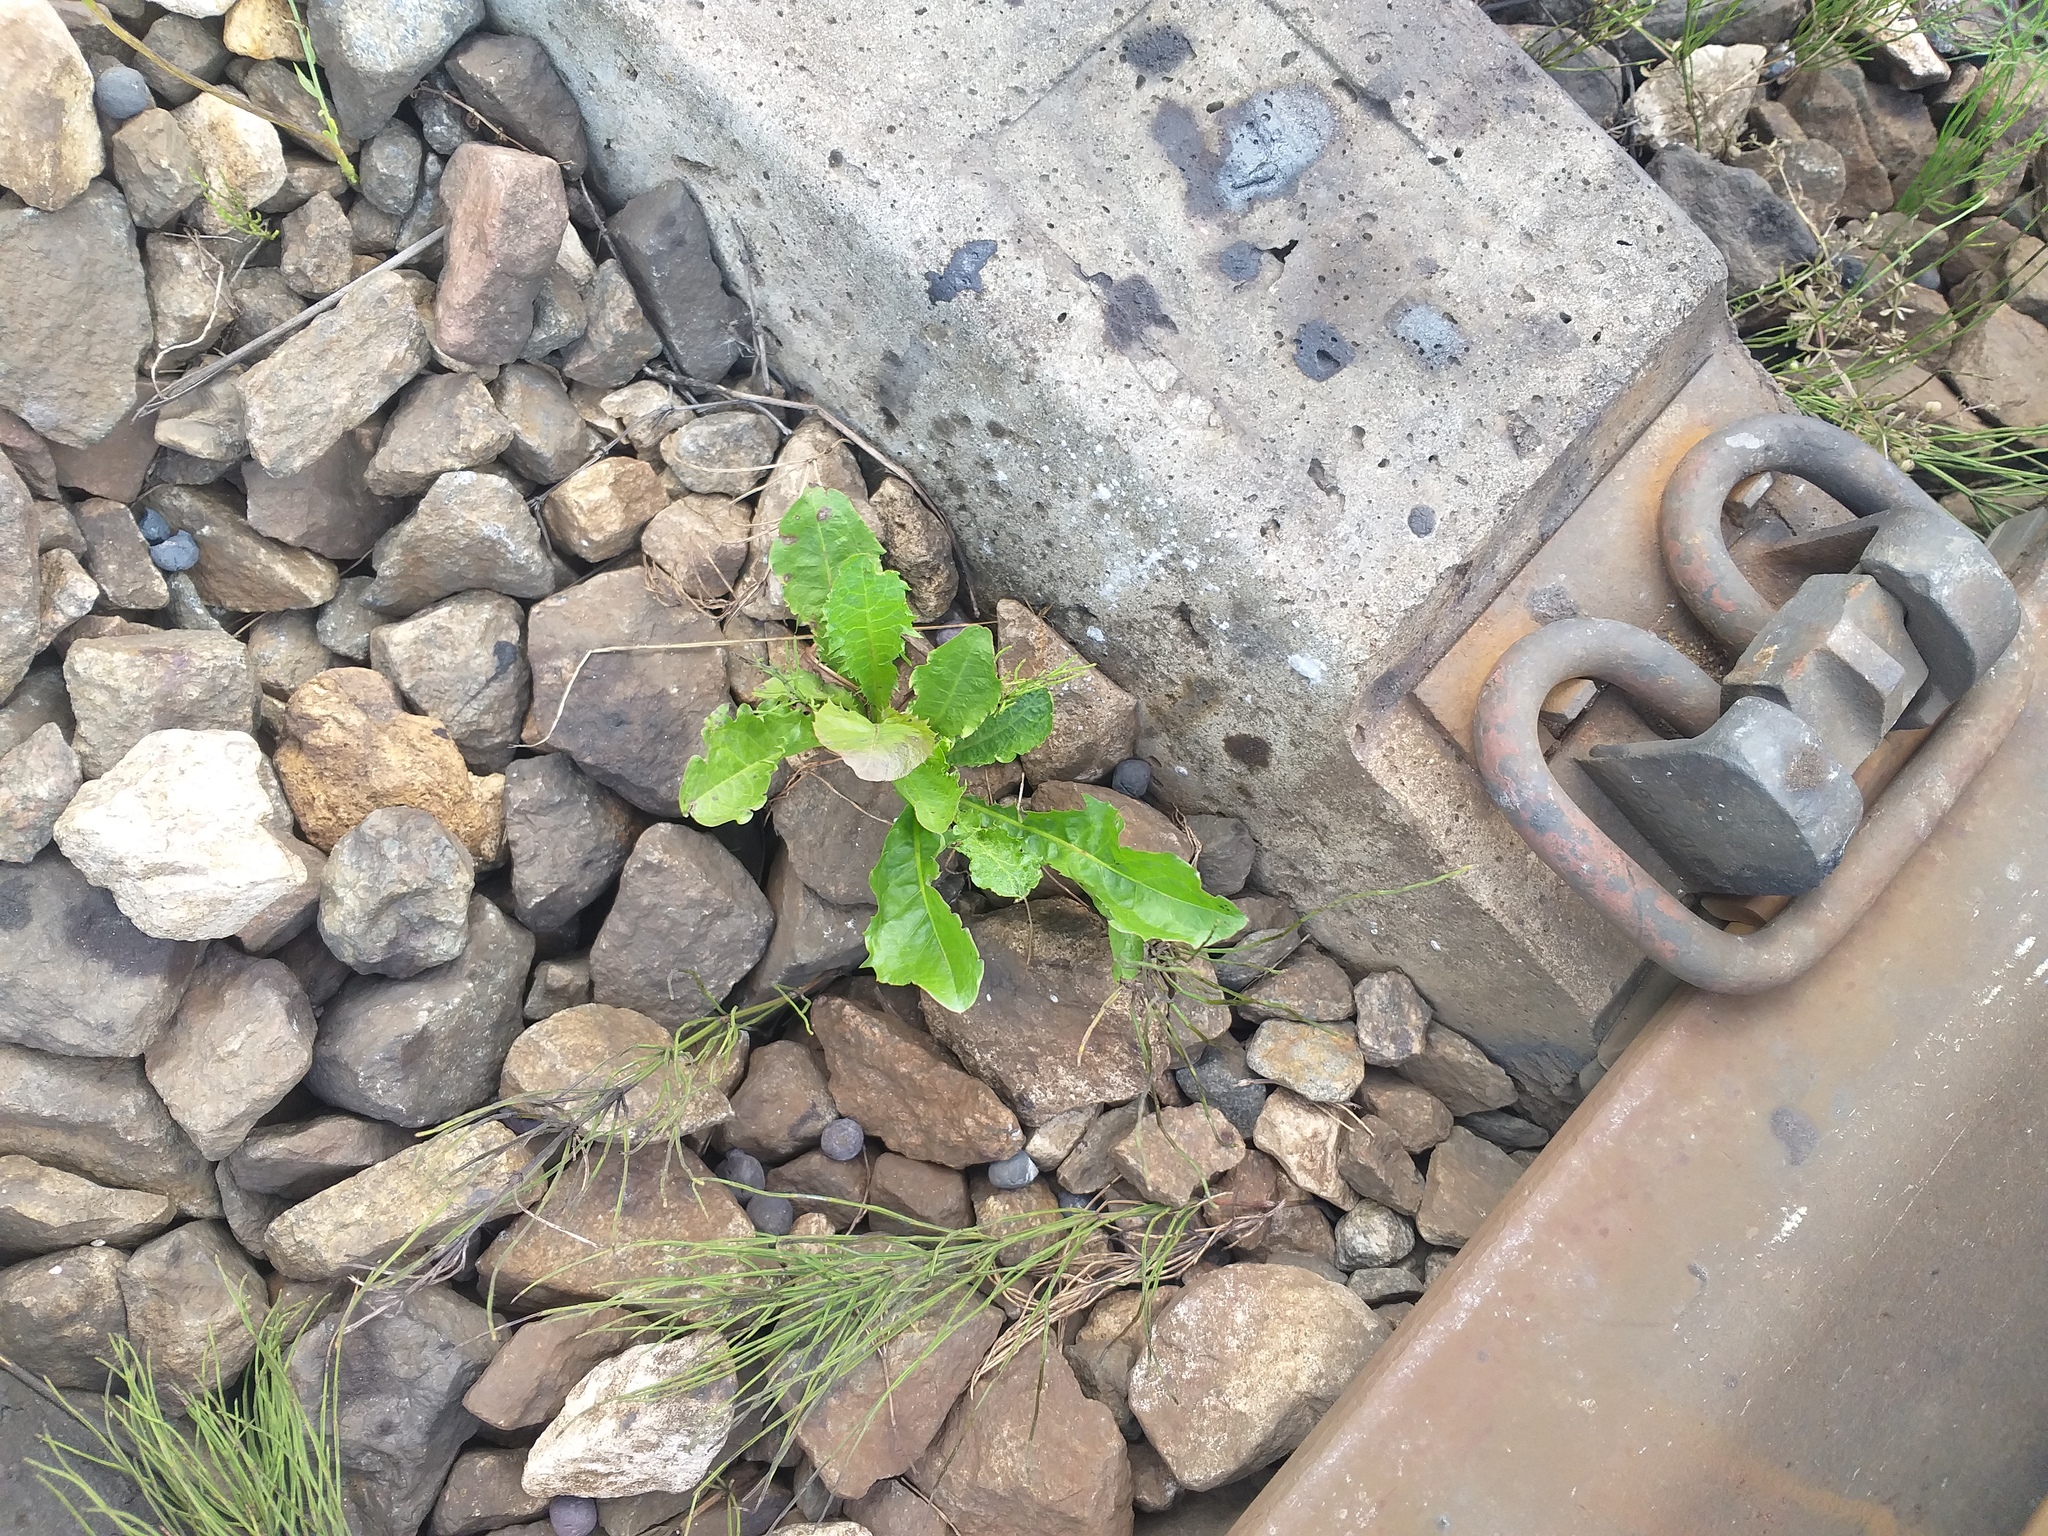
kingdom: Plantae
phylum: Tracheophyta
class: Magnoliopsida
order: Asterales
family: Asteraceae
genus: Taraxacum
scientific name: Taraxacum officinale
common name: Common dandelion
